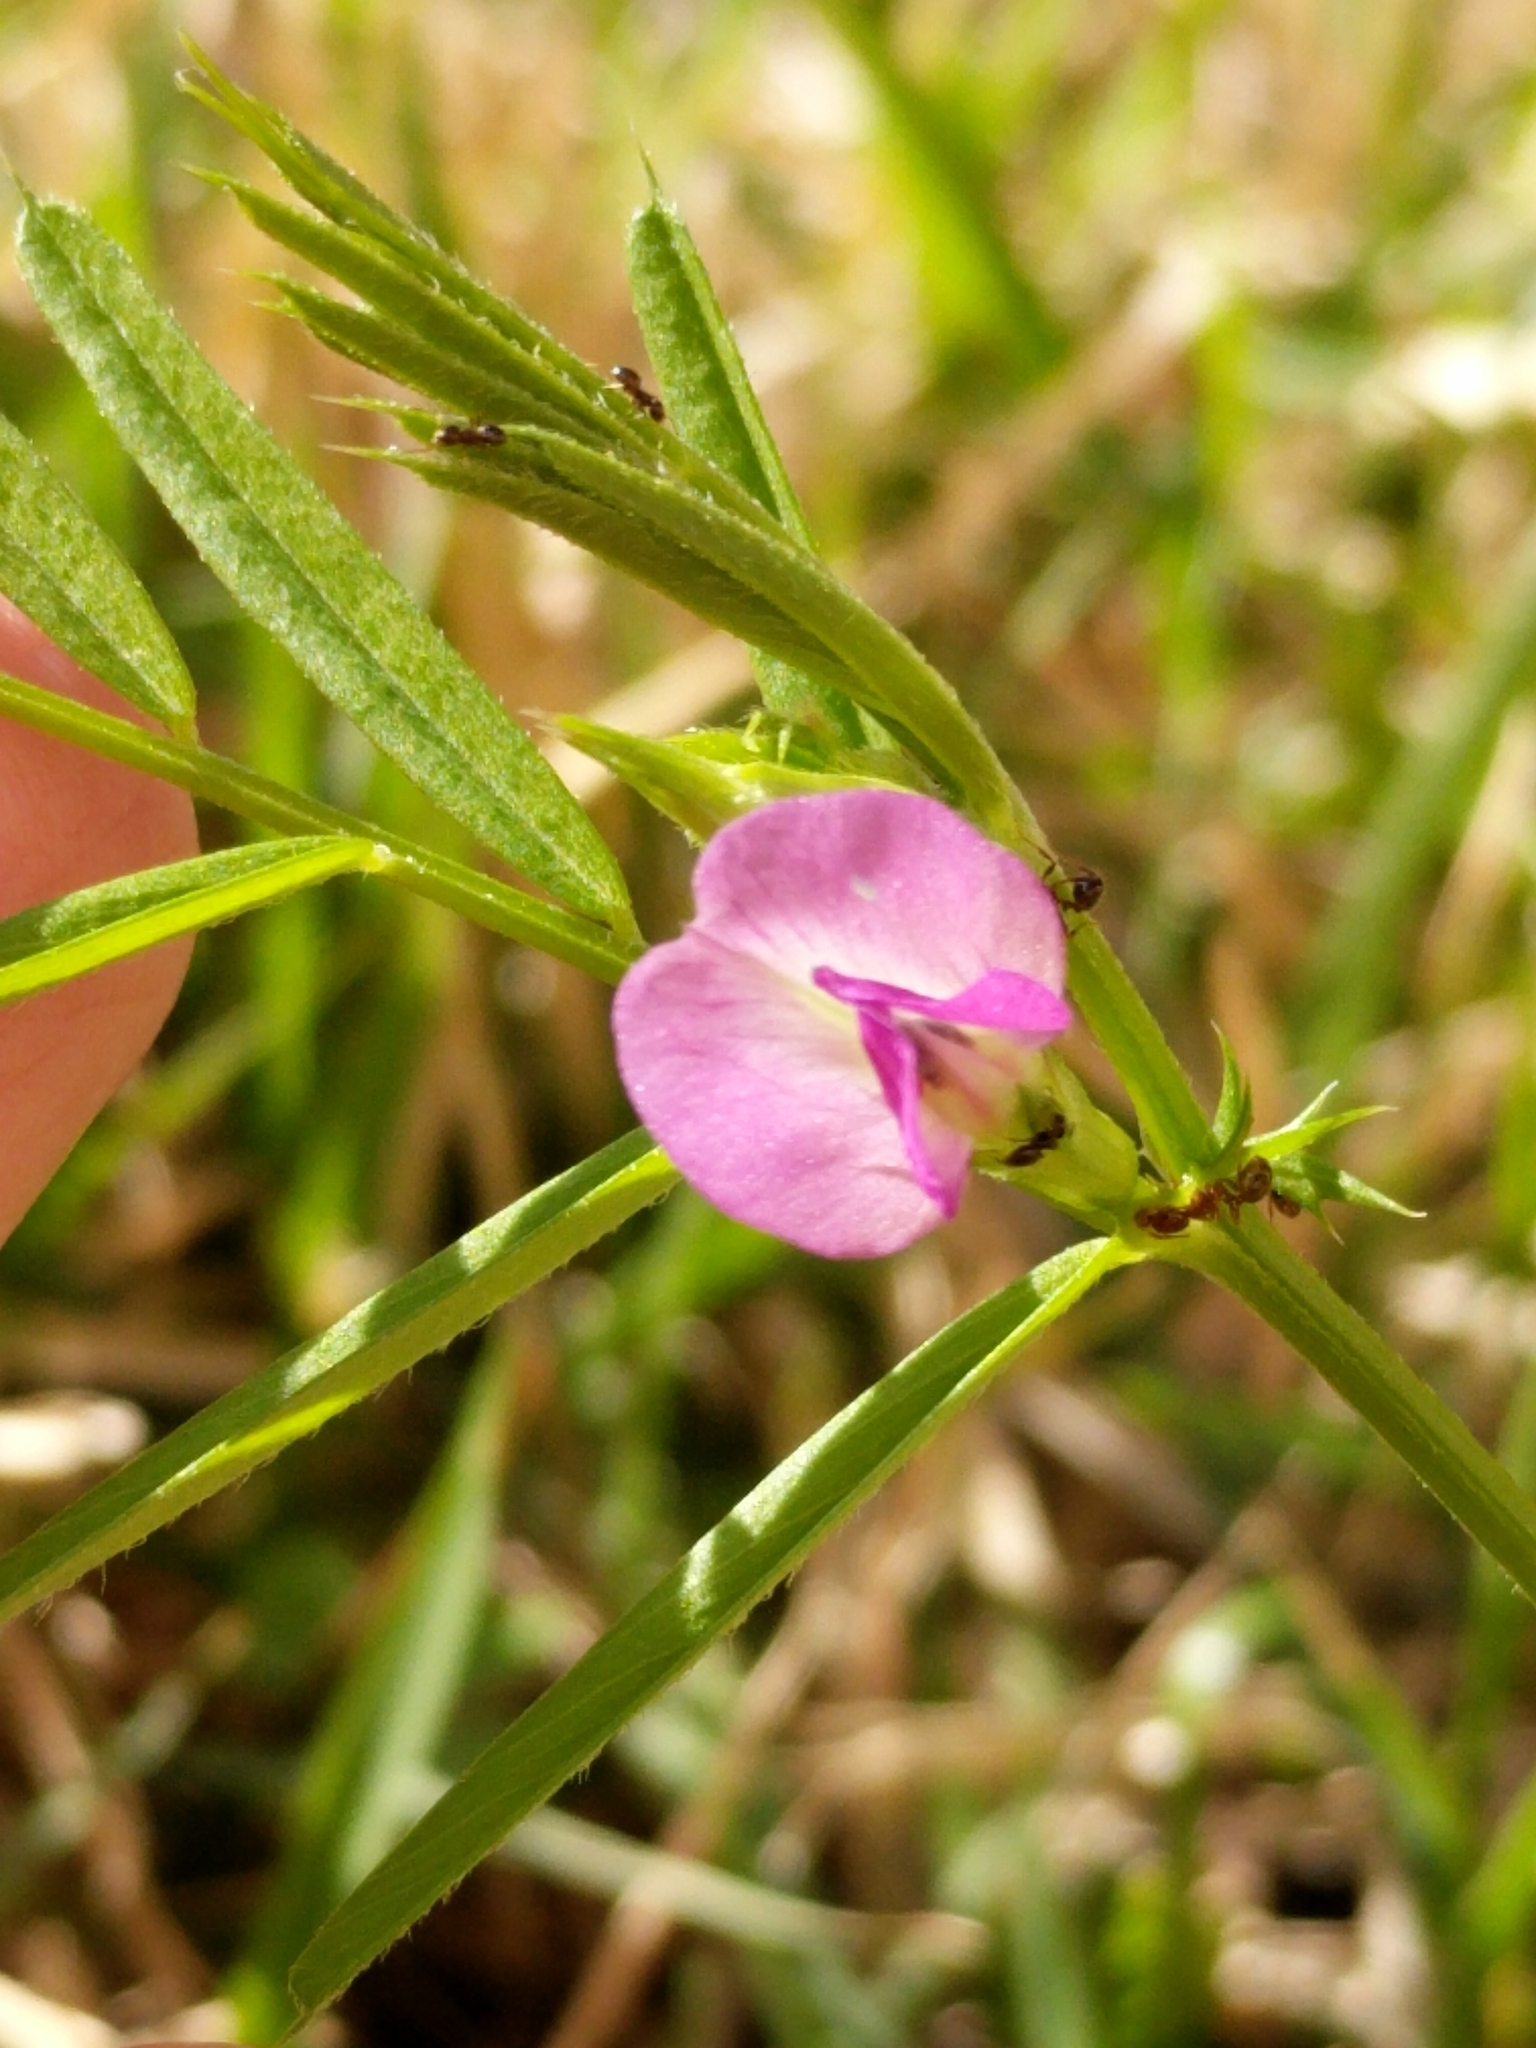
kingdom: Plantae
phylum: Tracheophyta
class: Magnoliopsida
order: Fabales
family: Fabaceae
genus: Vicia
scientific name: Vicia sativa
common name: Garden vetch
